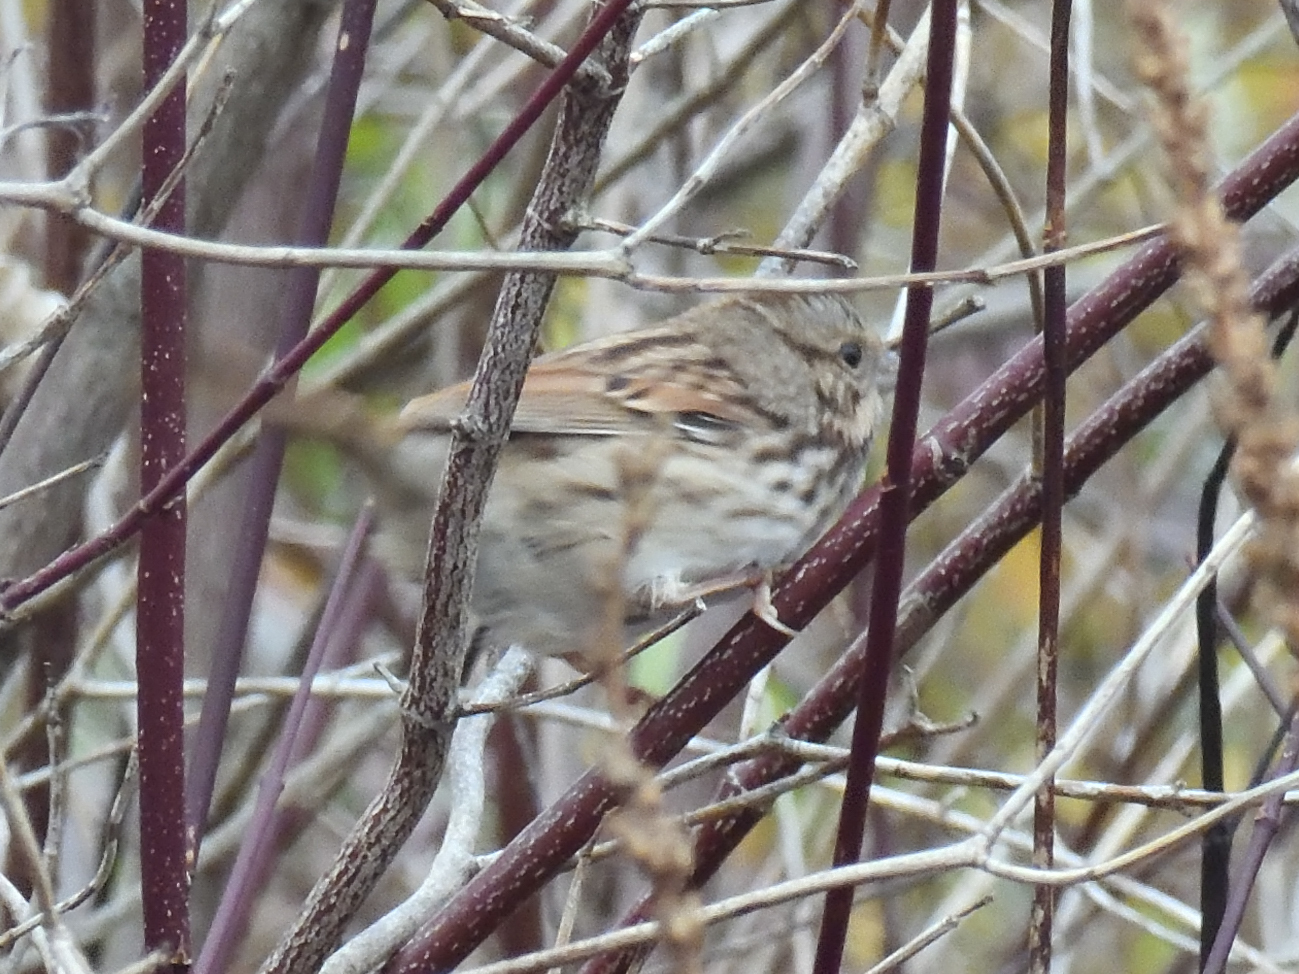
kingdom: Animalia
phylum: Chordata
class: Aves
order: Passeriformes
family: Passerellidae
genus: Melospiza
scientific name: Melospiza melodia
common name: Song sparrow
